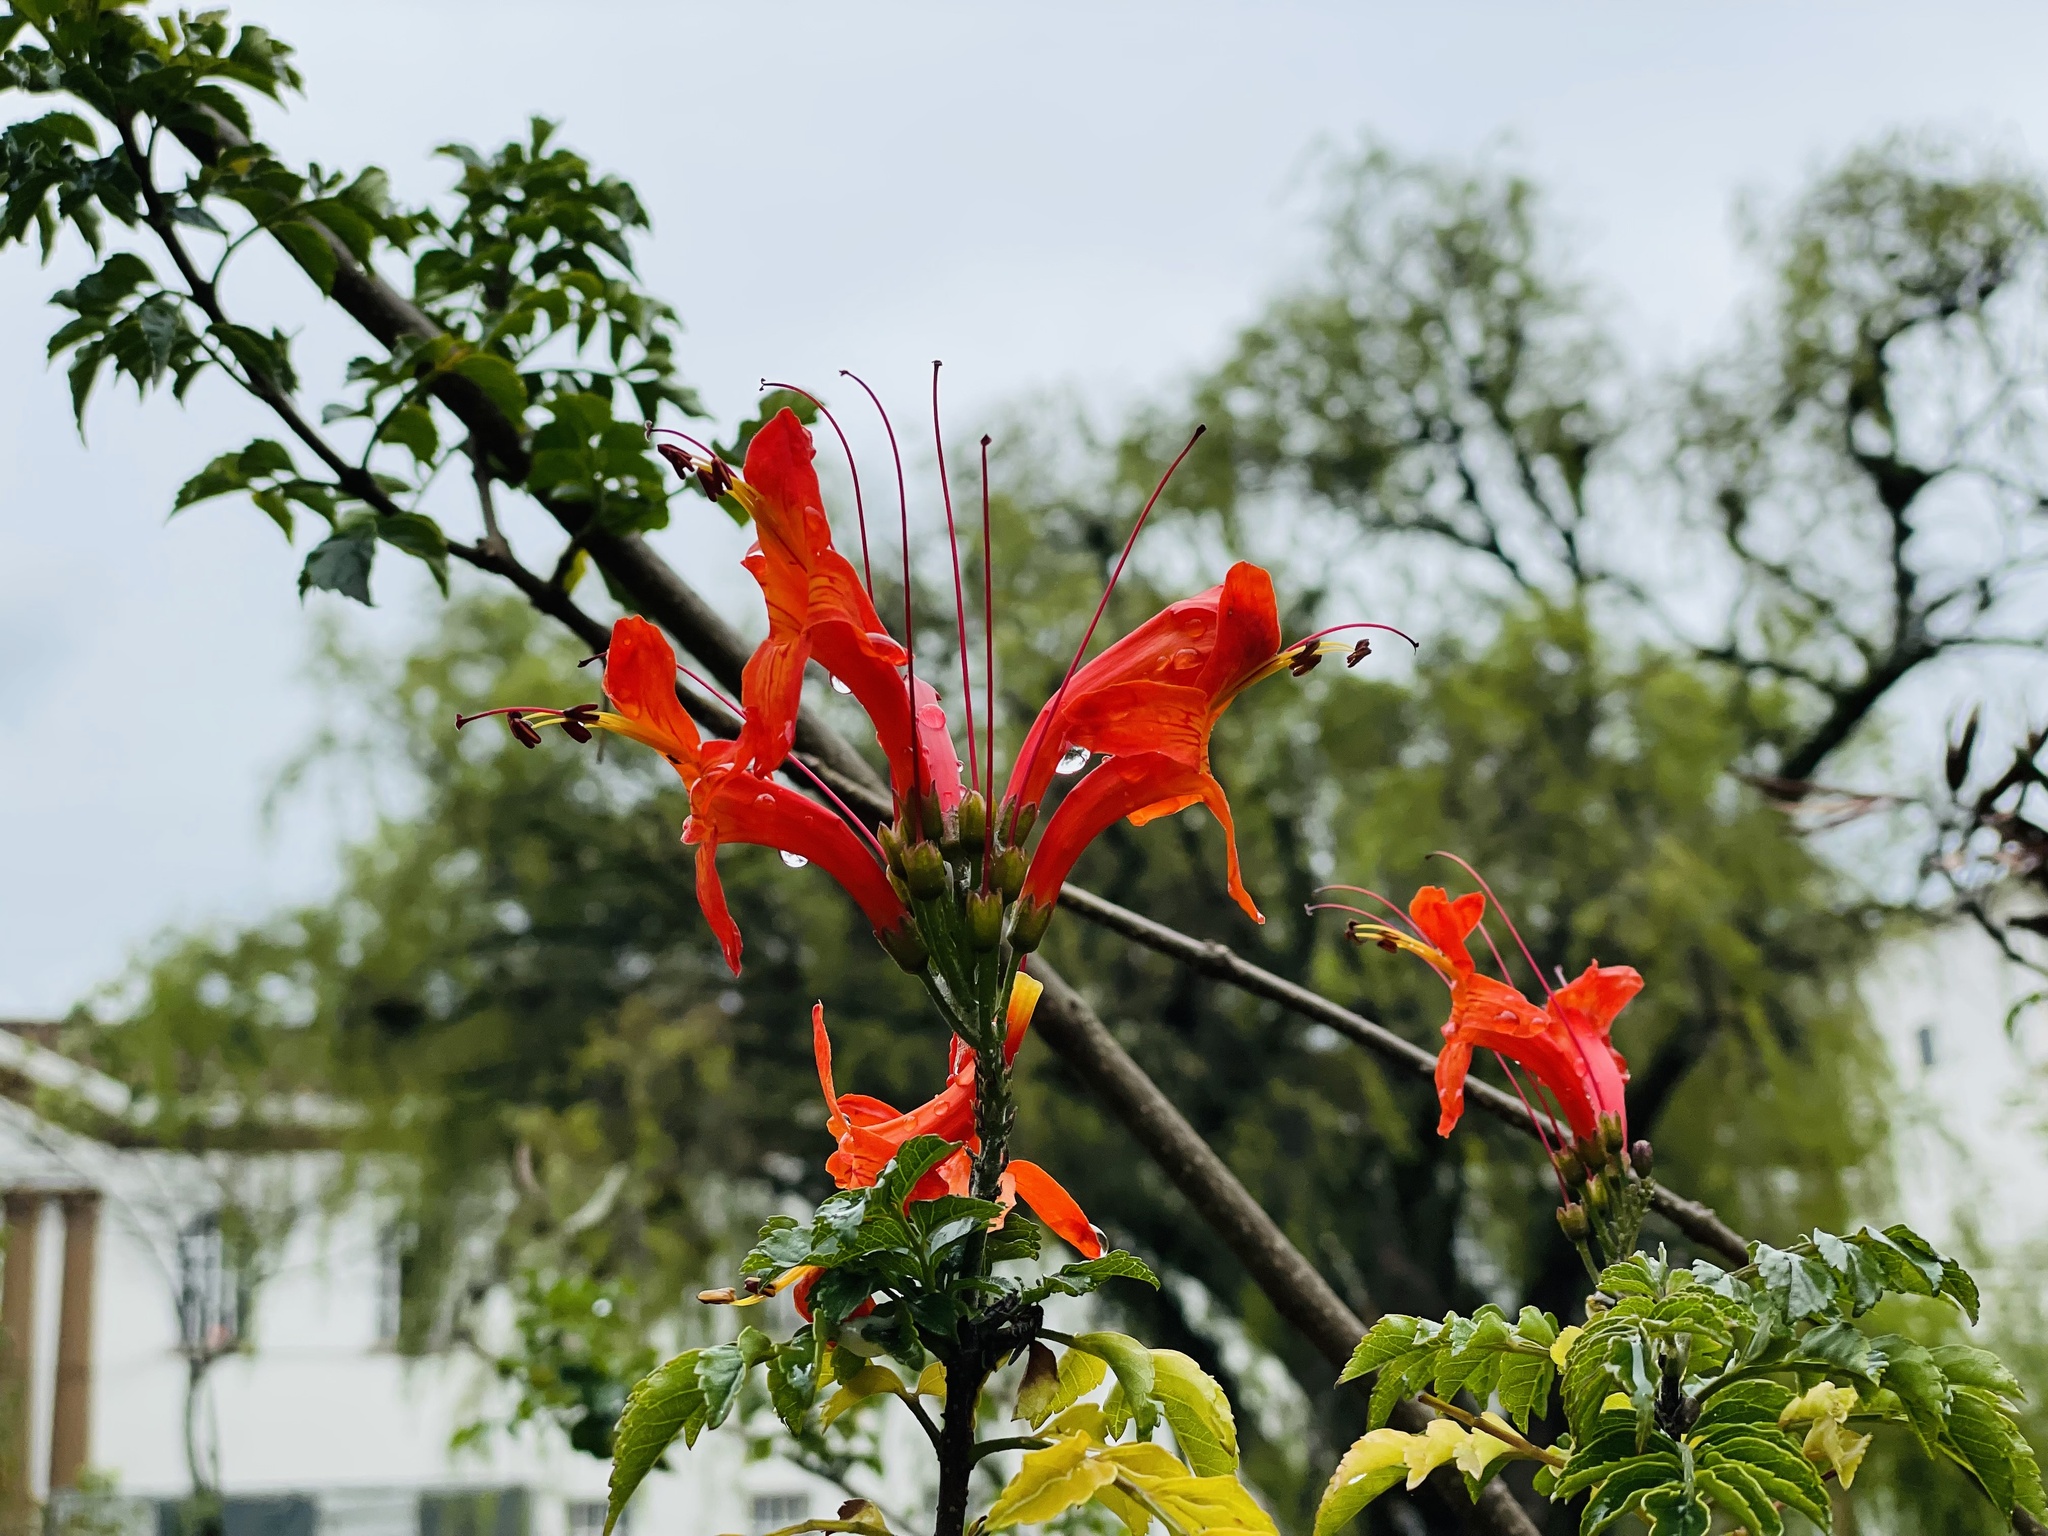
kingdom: Plantae
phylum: Tracheophyta
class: Magnoliopsida
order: Lamiales
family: Bignoniaceae
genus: Tecomaria
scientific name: Tecomaria capensis
